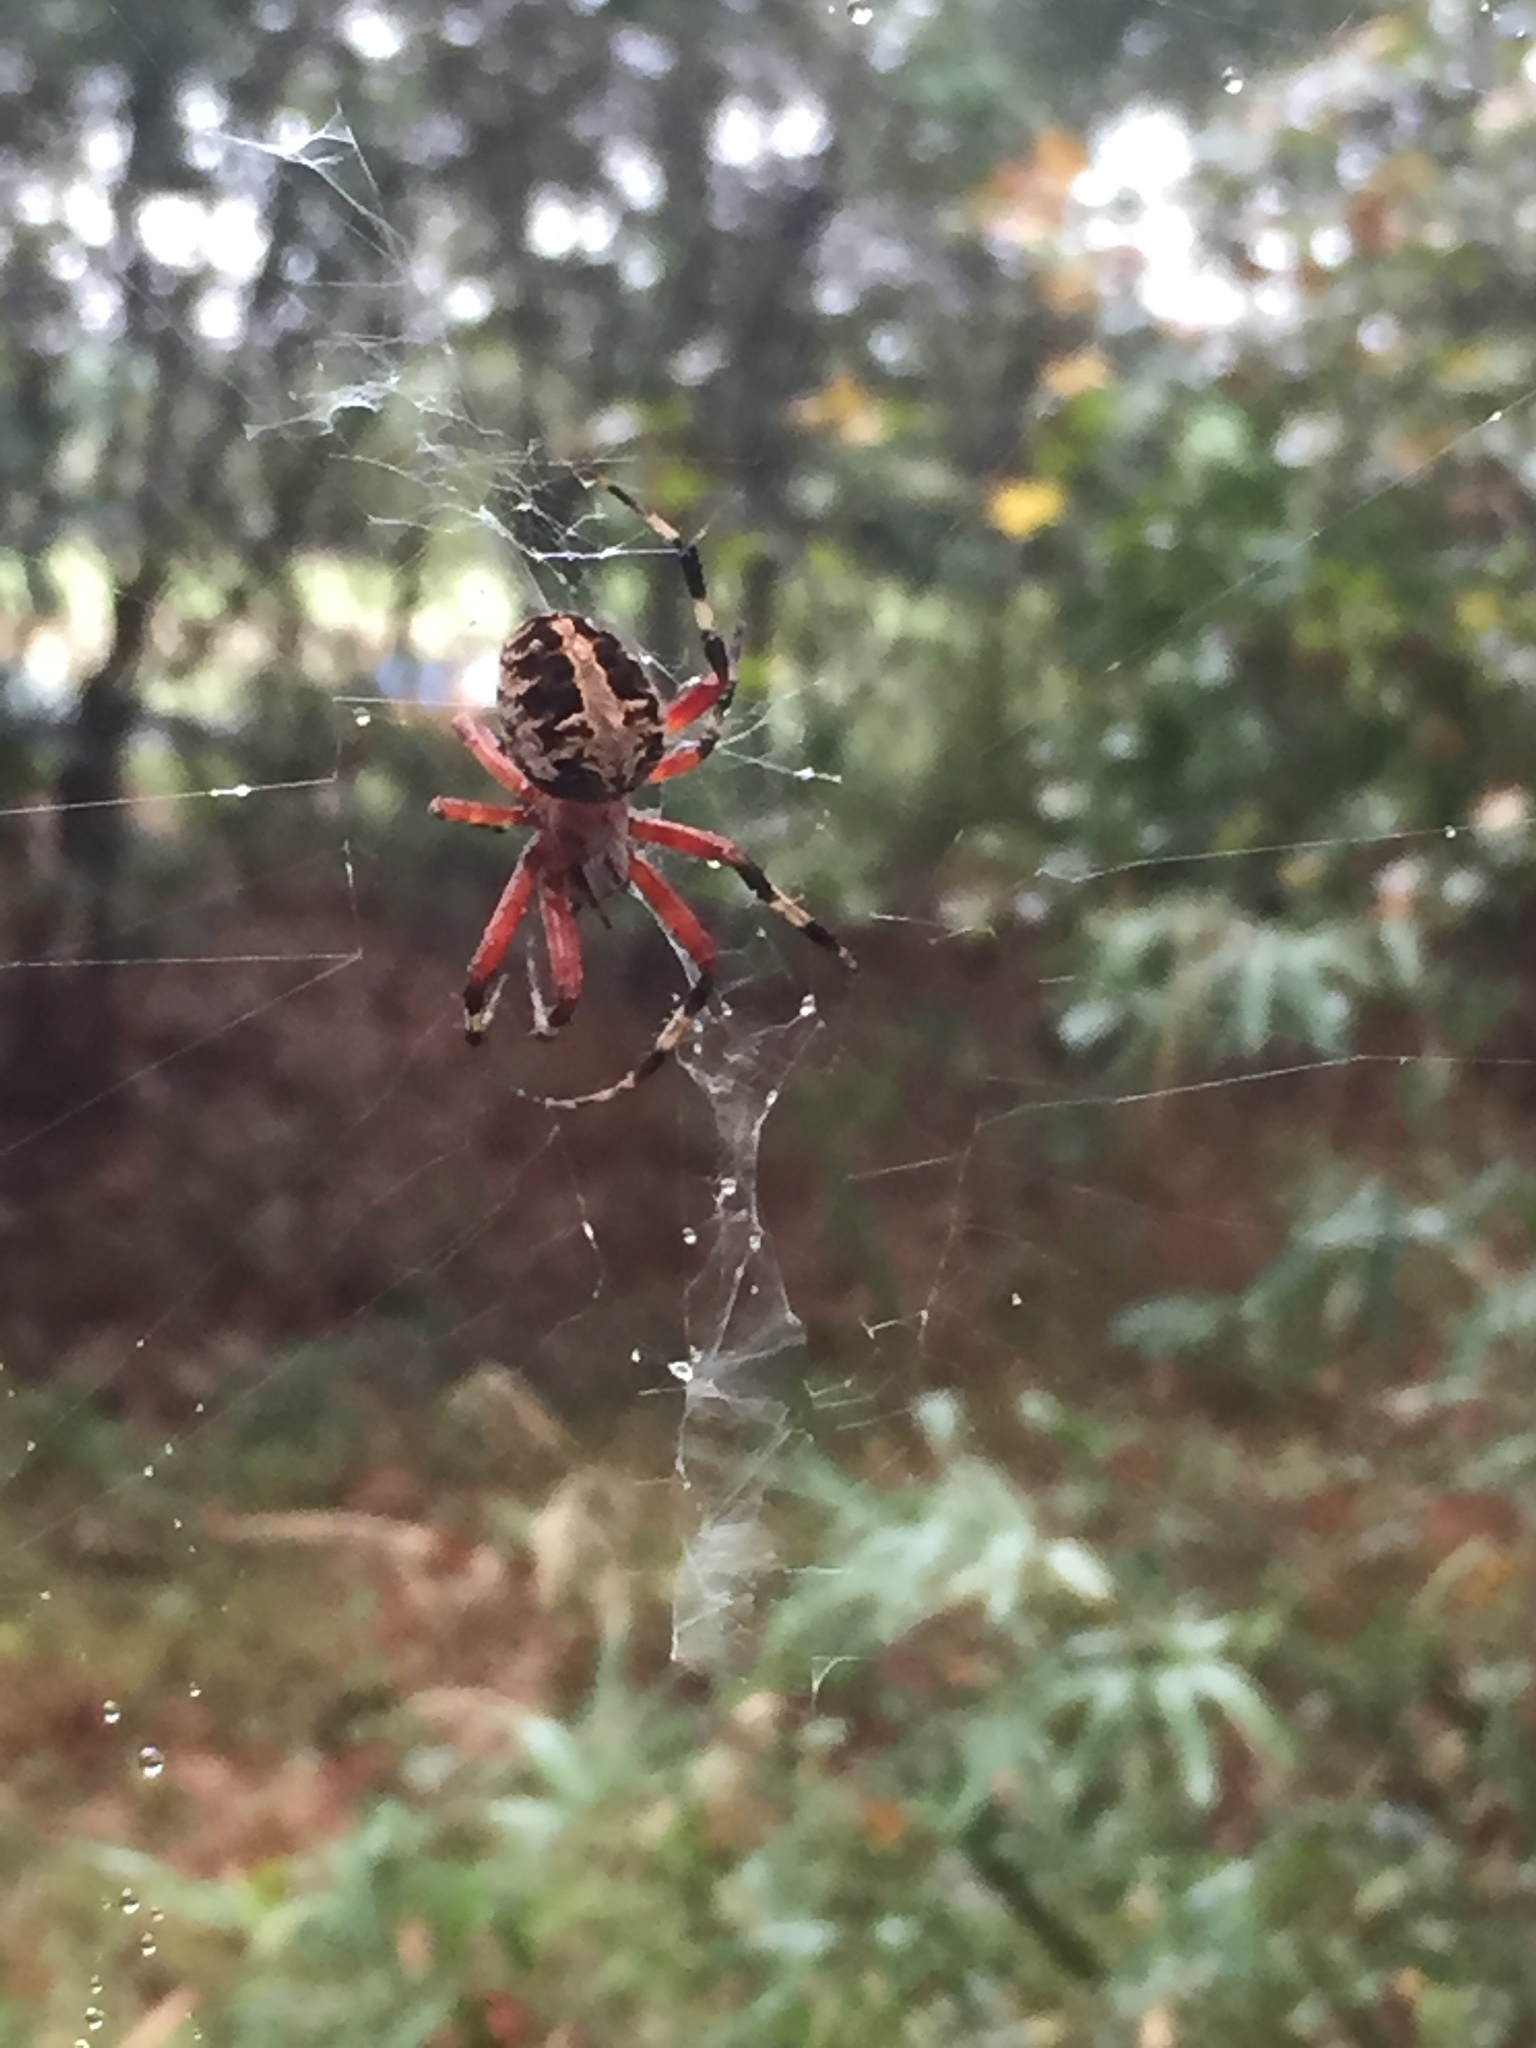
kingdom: Animalia
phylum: Arthropoda
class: Arachnida
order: Araneae
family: Araneidae
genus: Neoscona
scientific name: Neoscona domiciliorum
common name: Red-femured spotted orbweaver
